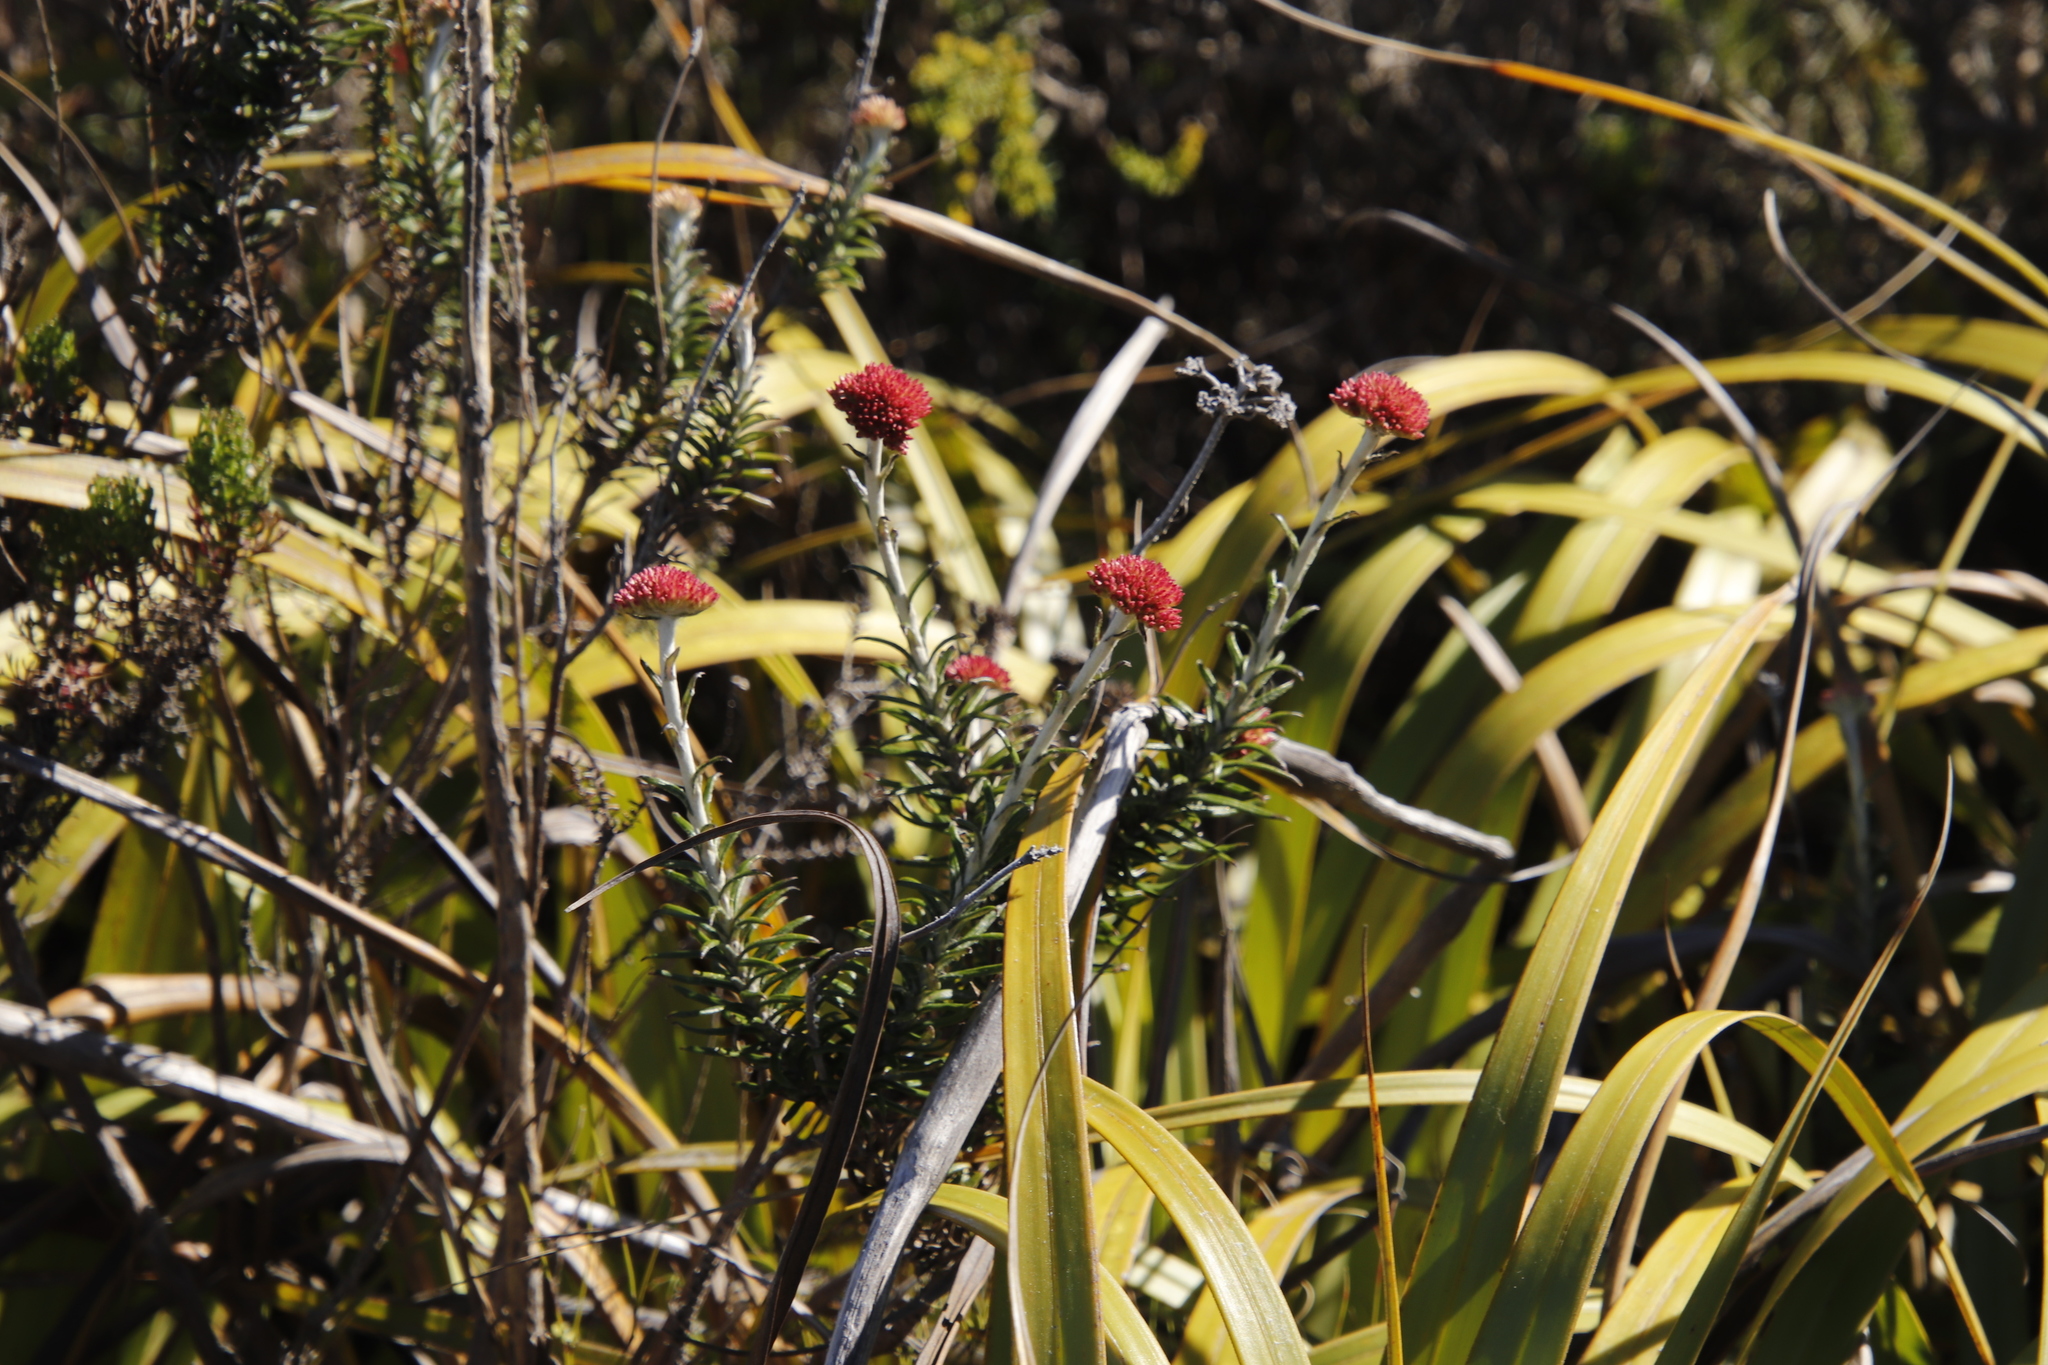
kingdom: Plantae
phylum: Tracheophyta
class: Magnoliopsida
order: Asterales
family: Asteraceae
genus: Anaxeton
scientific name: Anaxeton arborescens
